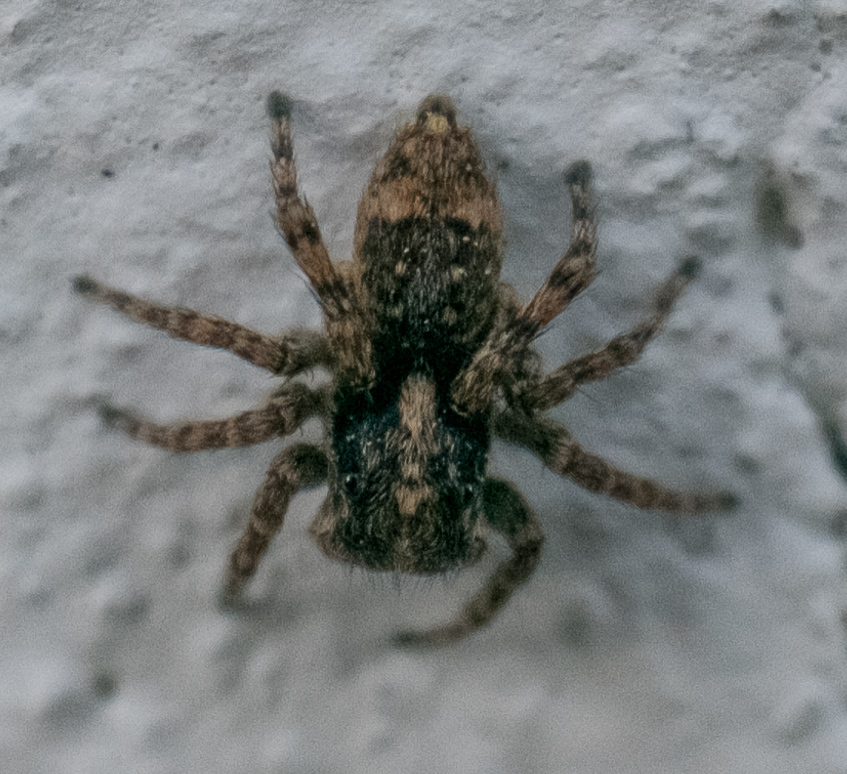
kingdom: Animalia
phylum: Arthropoda
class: Arachnida
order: Araneae
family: Salticidae
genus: Attulus
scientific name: Attulus fasciger
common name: Asiatic wall jumping spider
